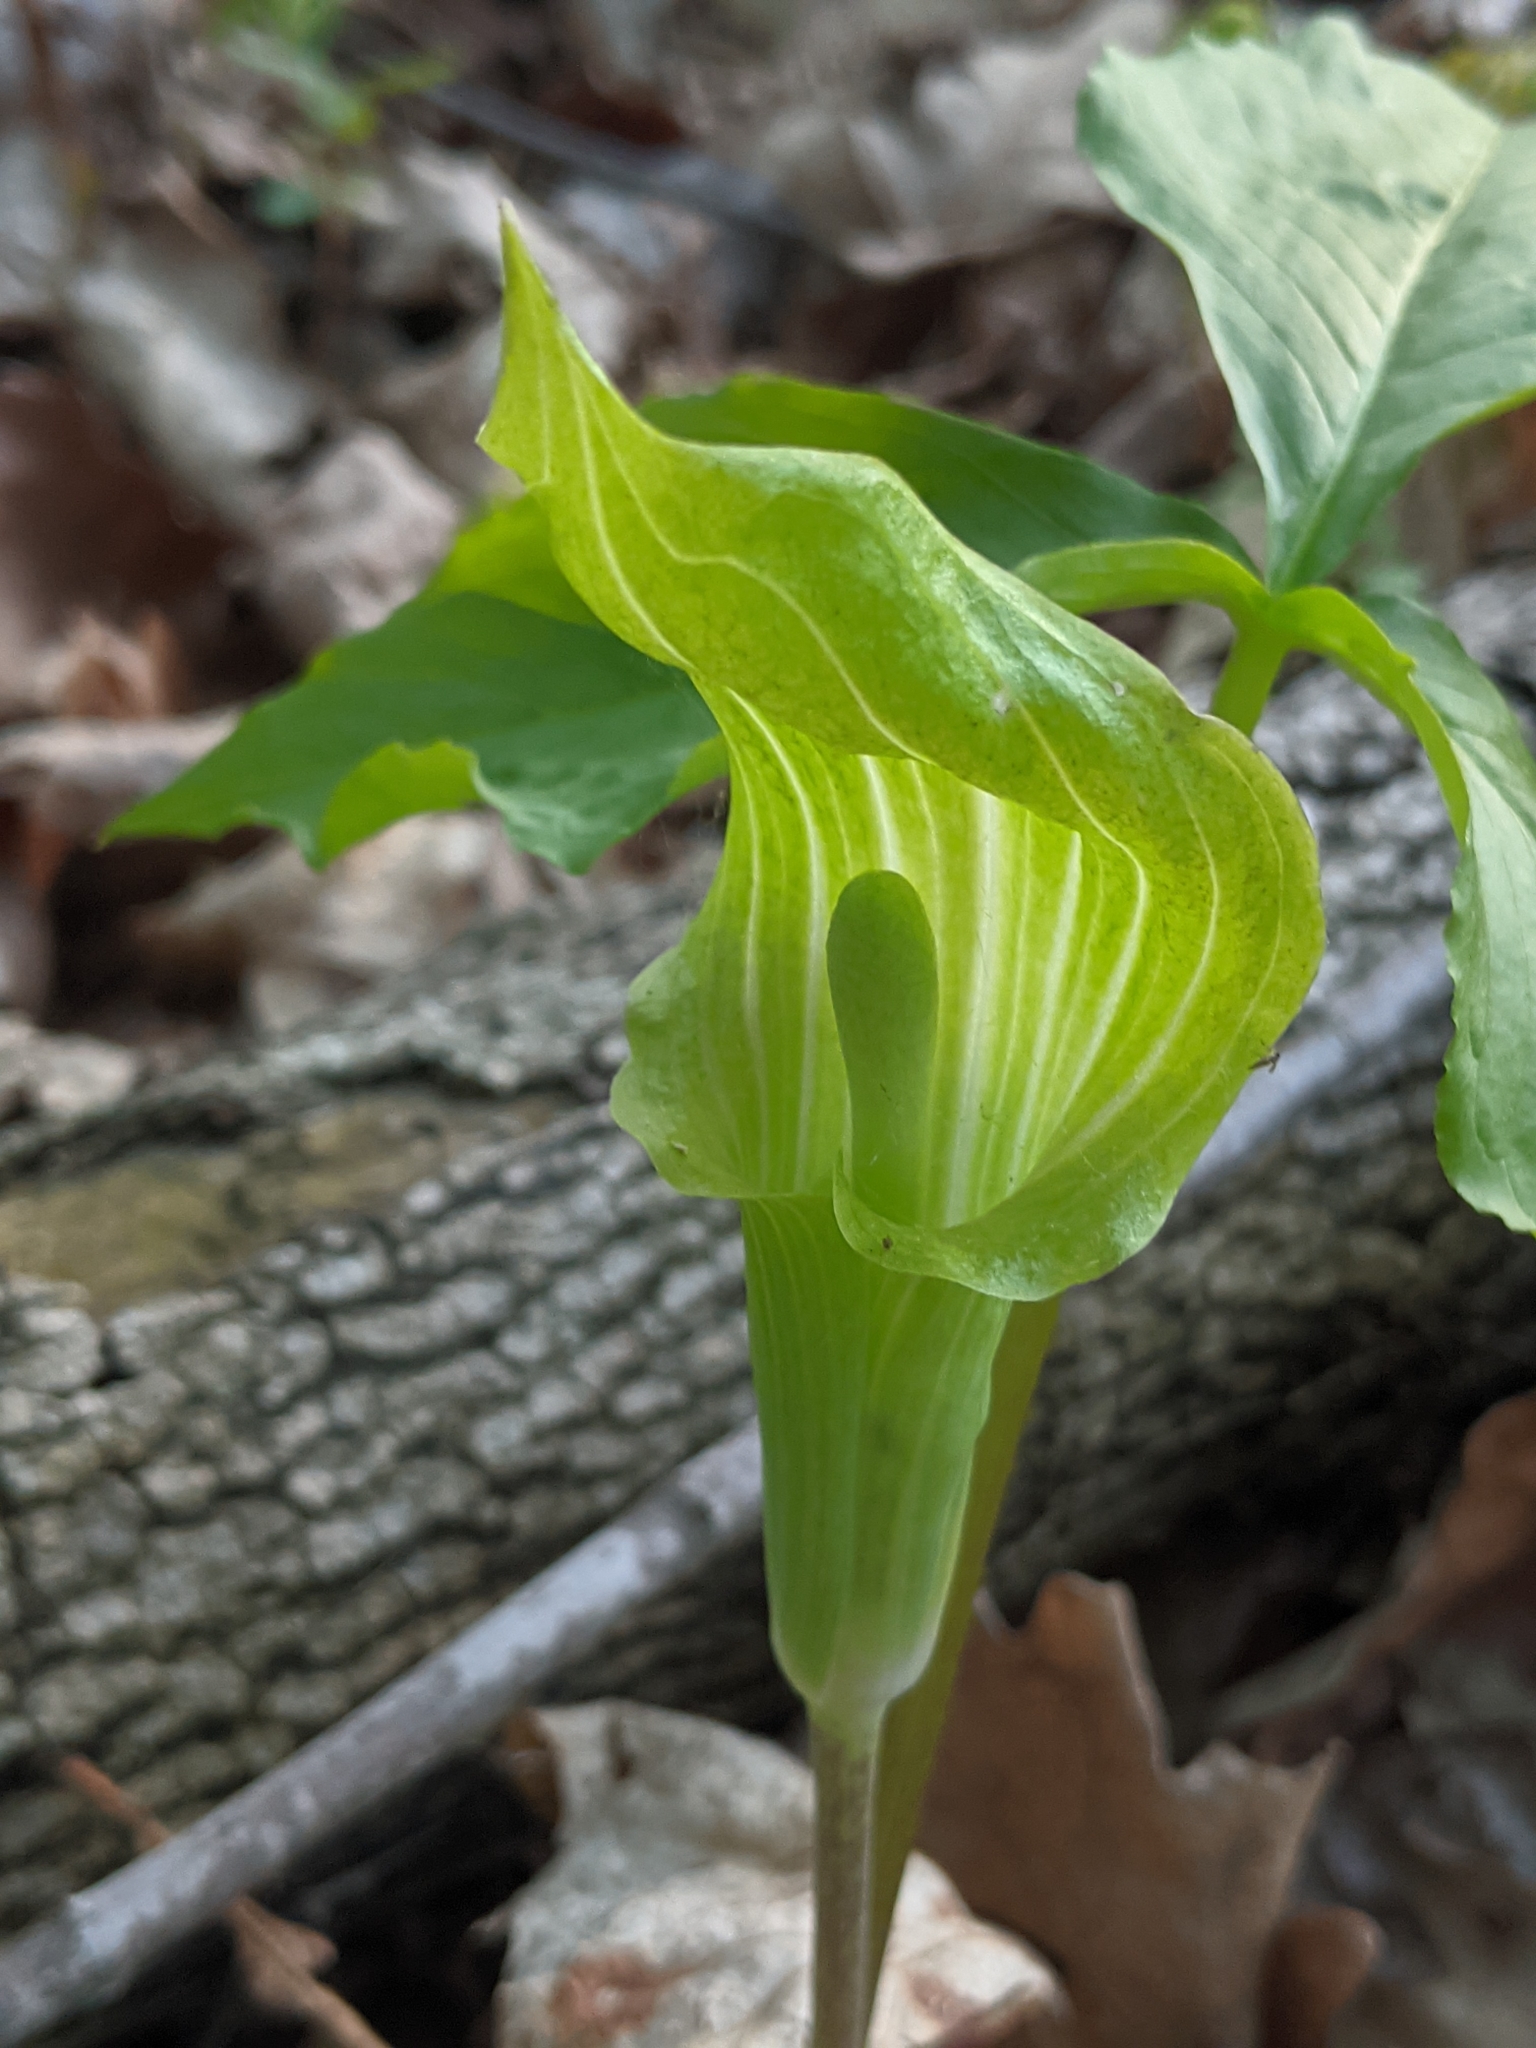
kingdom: Plantae
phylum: Tracheophyta
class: Liliopsida
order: Alismatales
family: Araceae
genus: Arisaema
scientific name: Arisaema triphyllum
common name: Jack-in-the-pulpit
